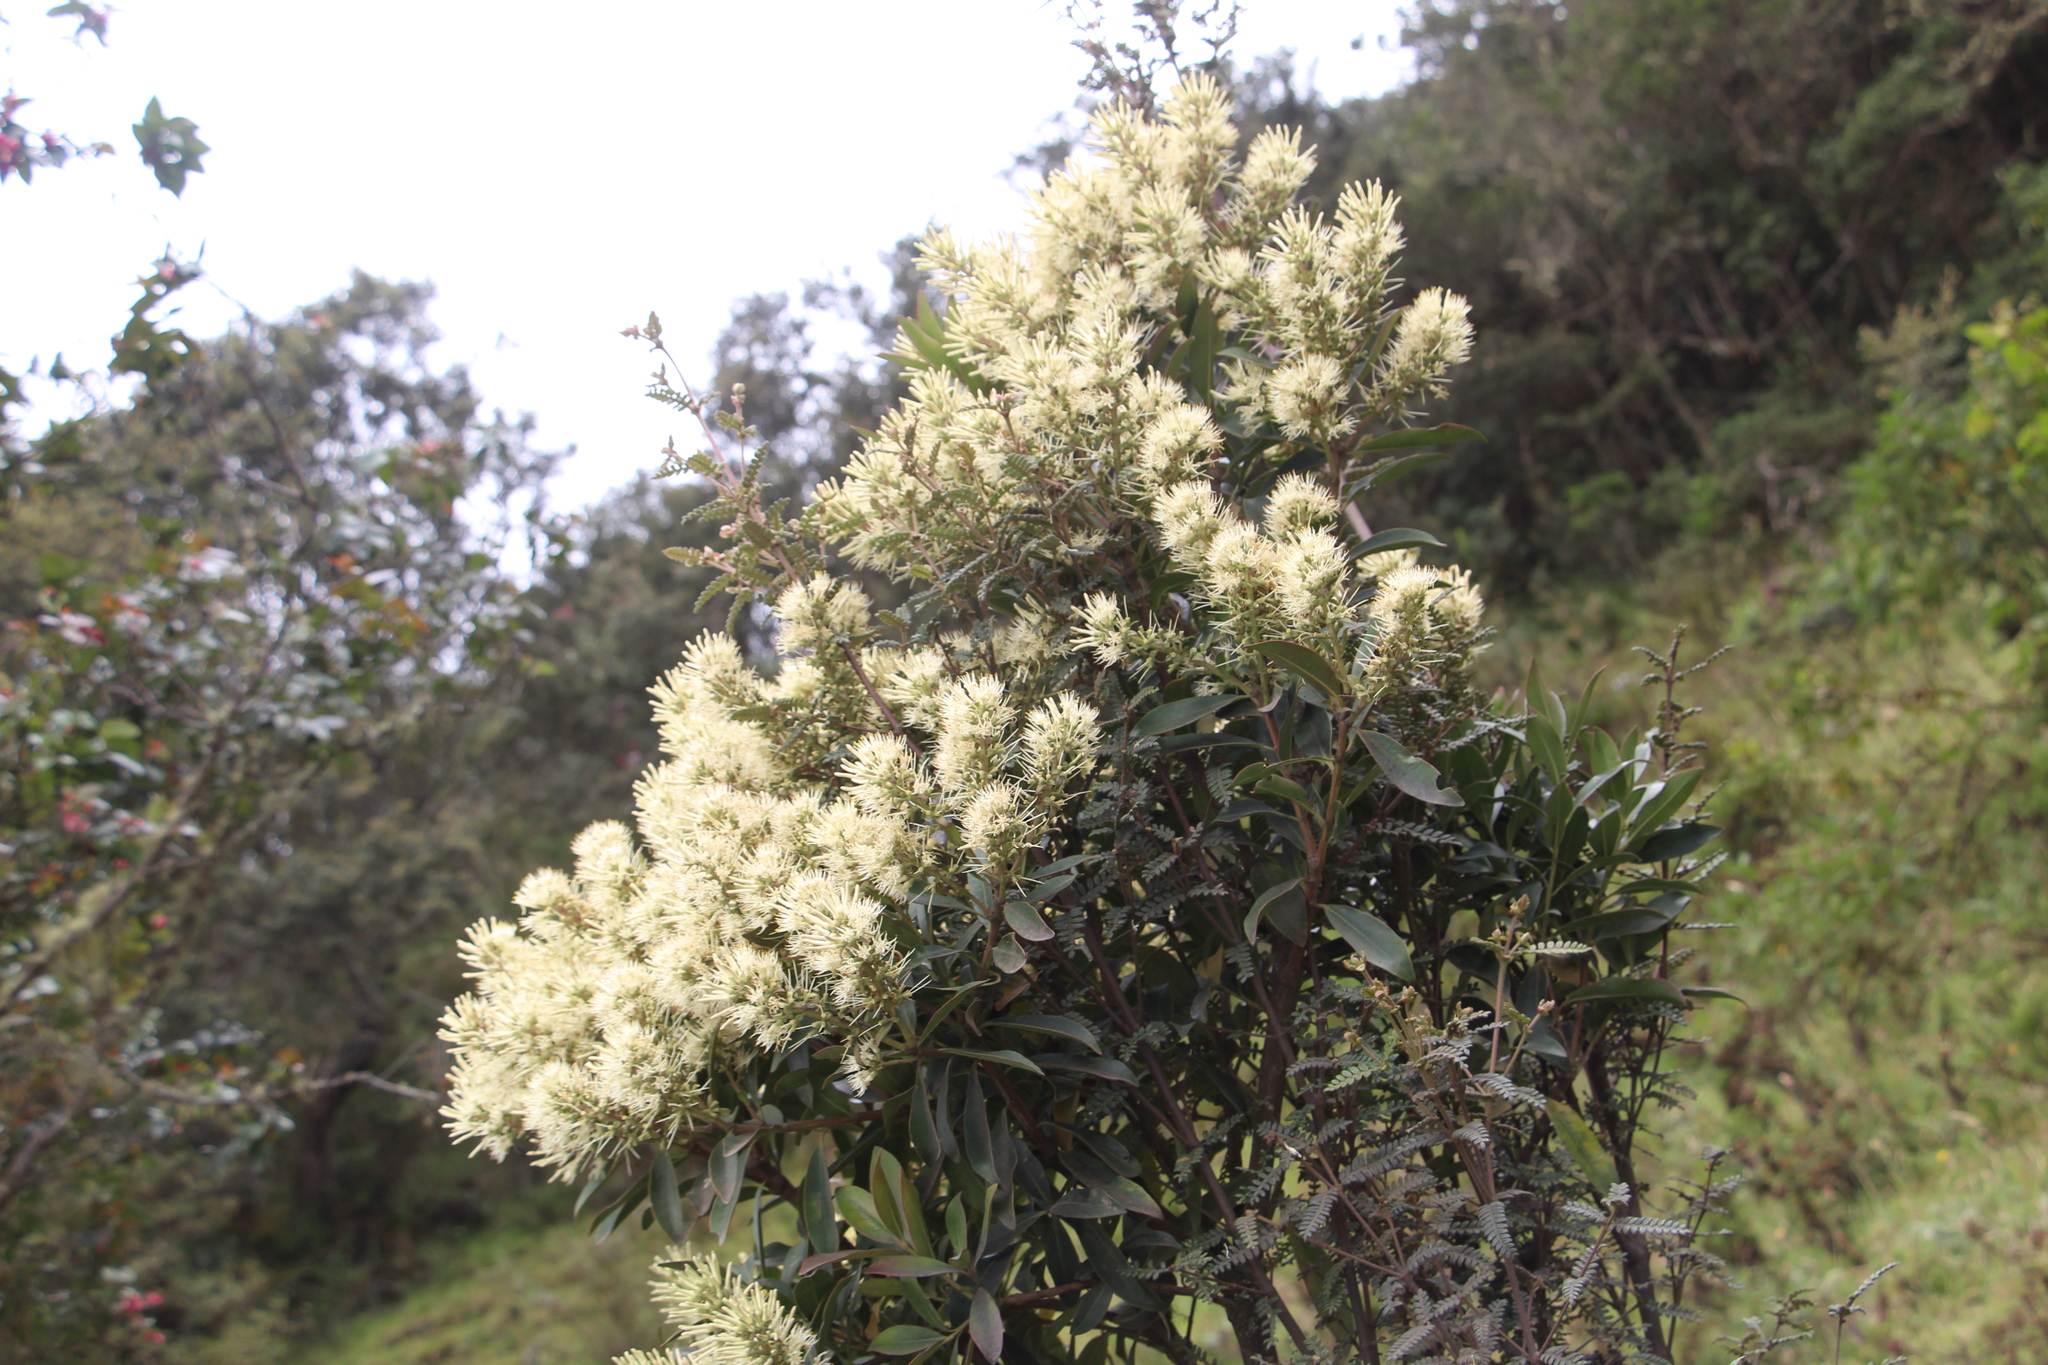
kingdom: Plantae
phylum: Tracheophyta
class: Magnoliopsida
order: Santalales
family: Loranthaceae
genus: Gaiadendron
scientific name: Gaiadendron punctatum
